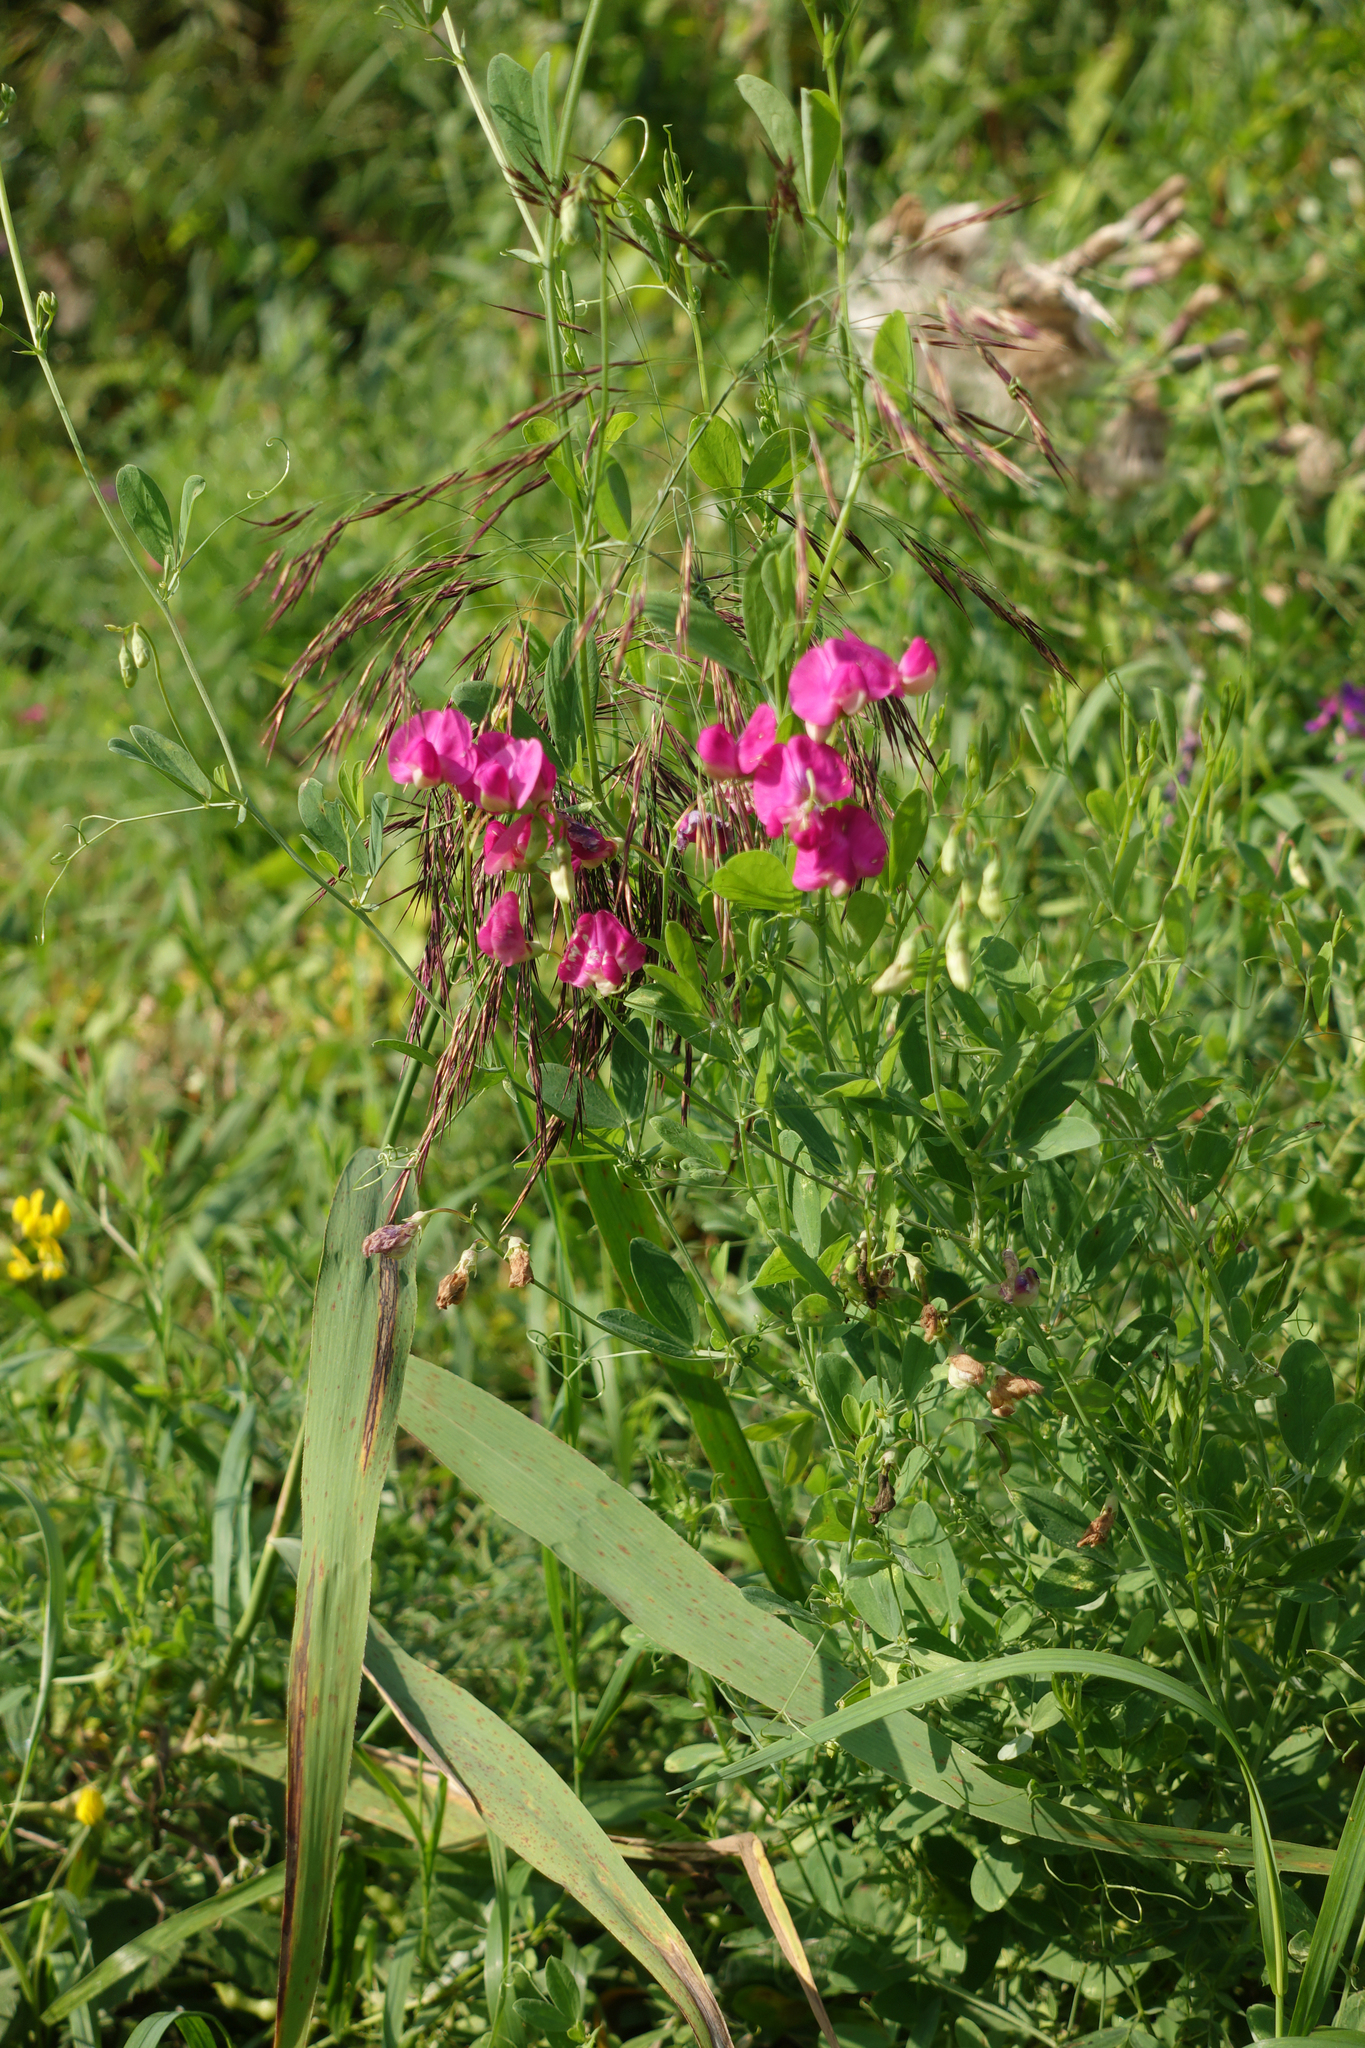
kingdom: Plantae
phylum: Tracheophyta
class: Magnoliopsida
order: Fabales
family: Fabaceae
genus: Lathyrus
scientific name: Lathyrus tuberosus
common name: Tuberous pea
